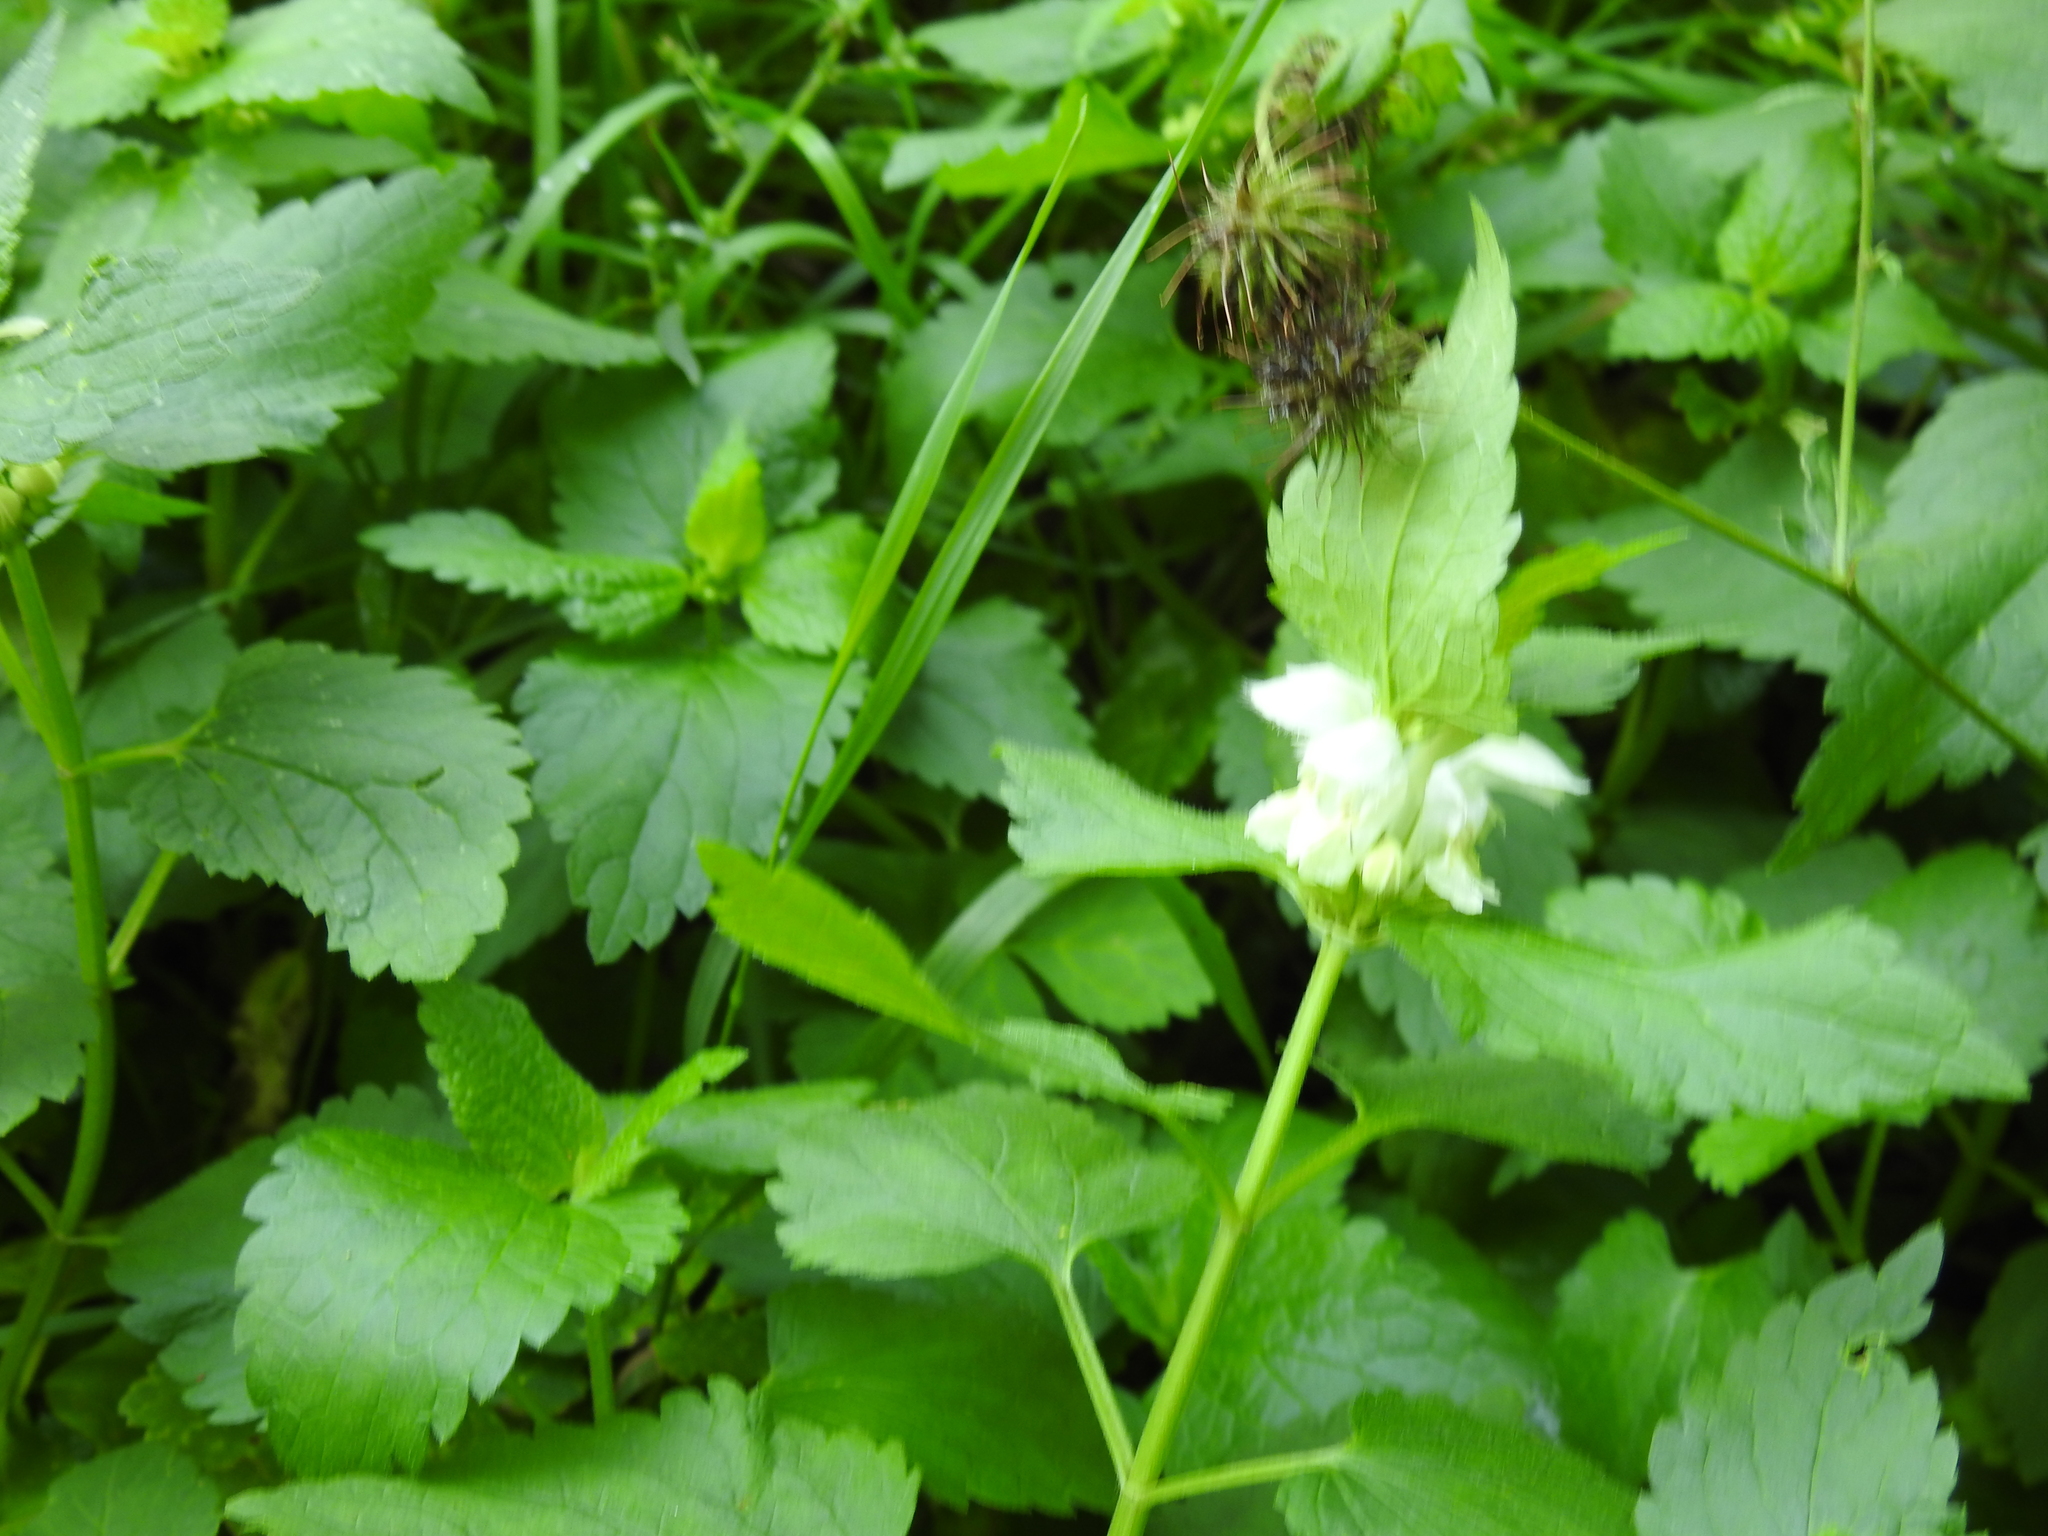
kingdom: Plantae
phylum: Tracheophyta
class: Magnoliopsida
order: Lamiales
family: Lamiaceae
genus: Lamium
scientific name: Lamium album
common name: White dead-nettle
